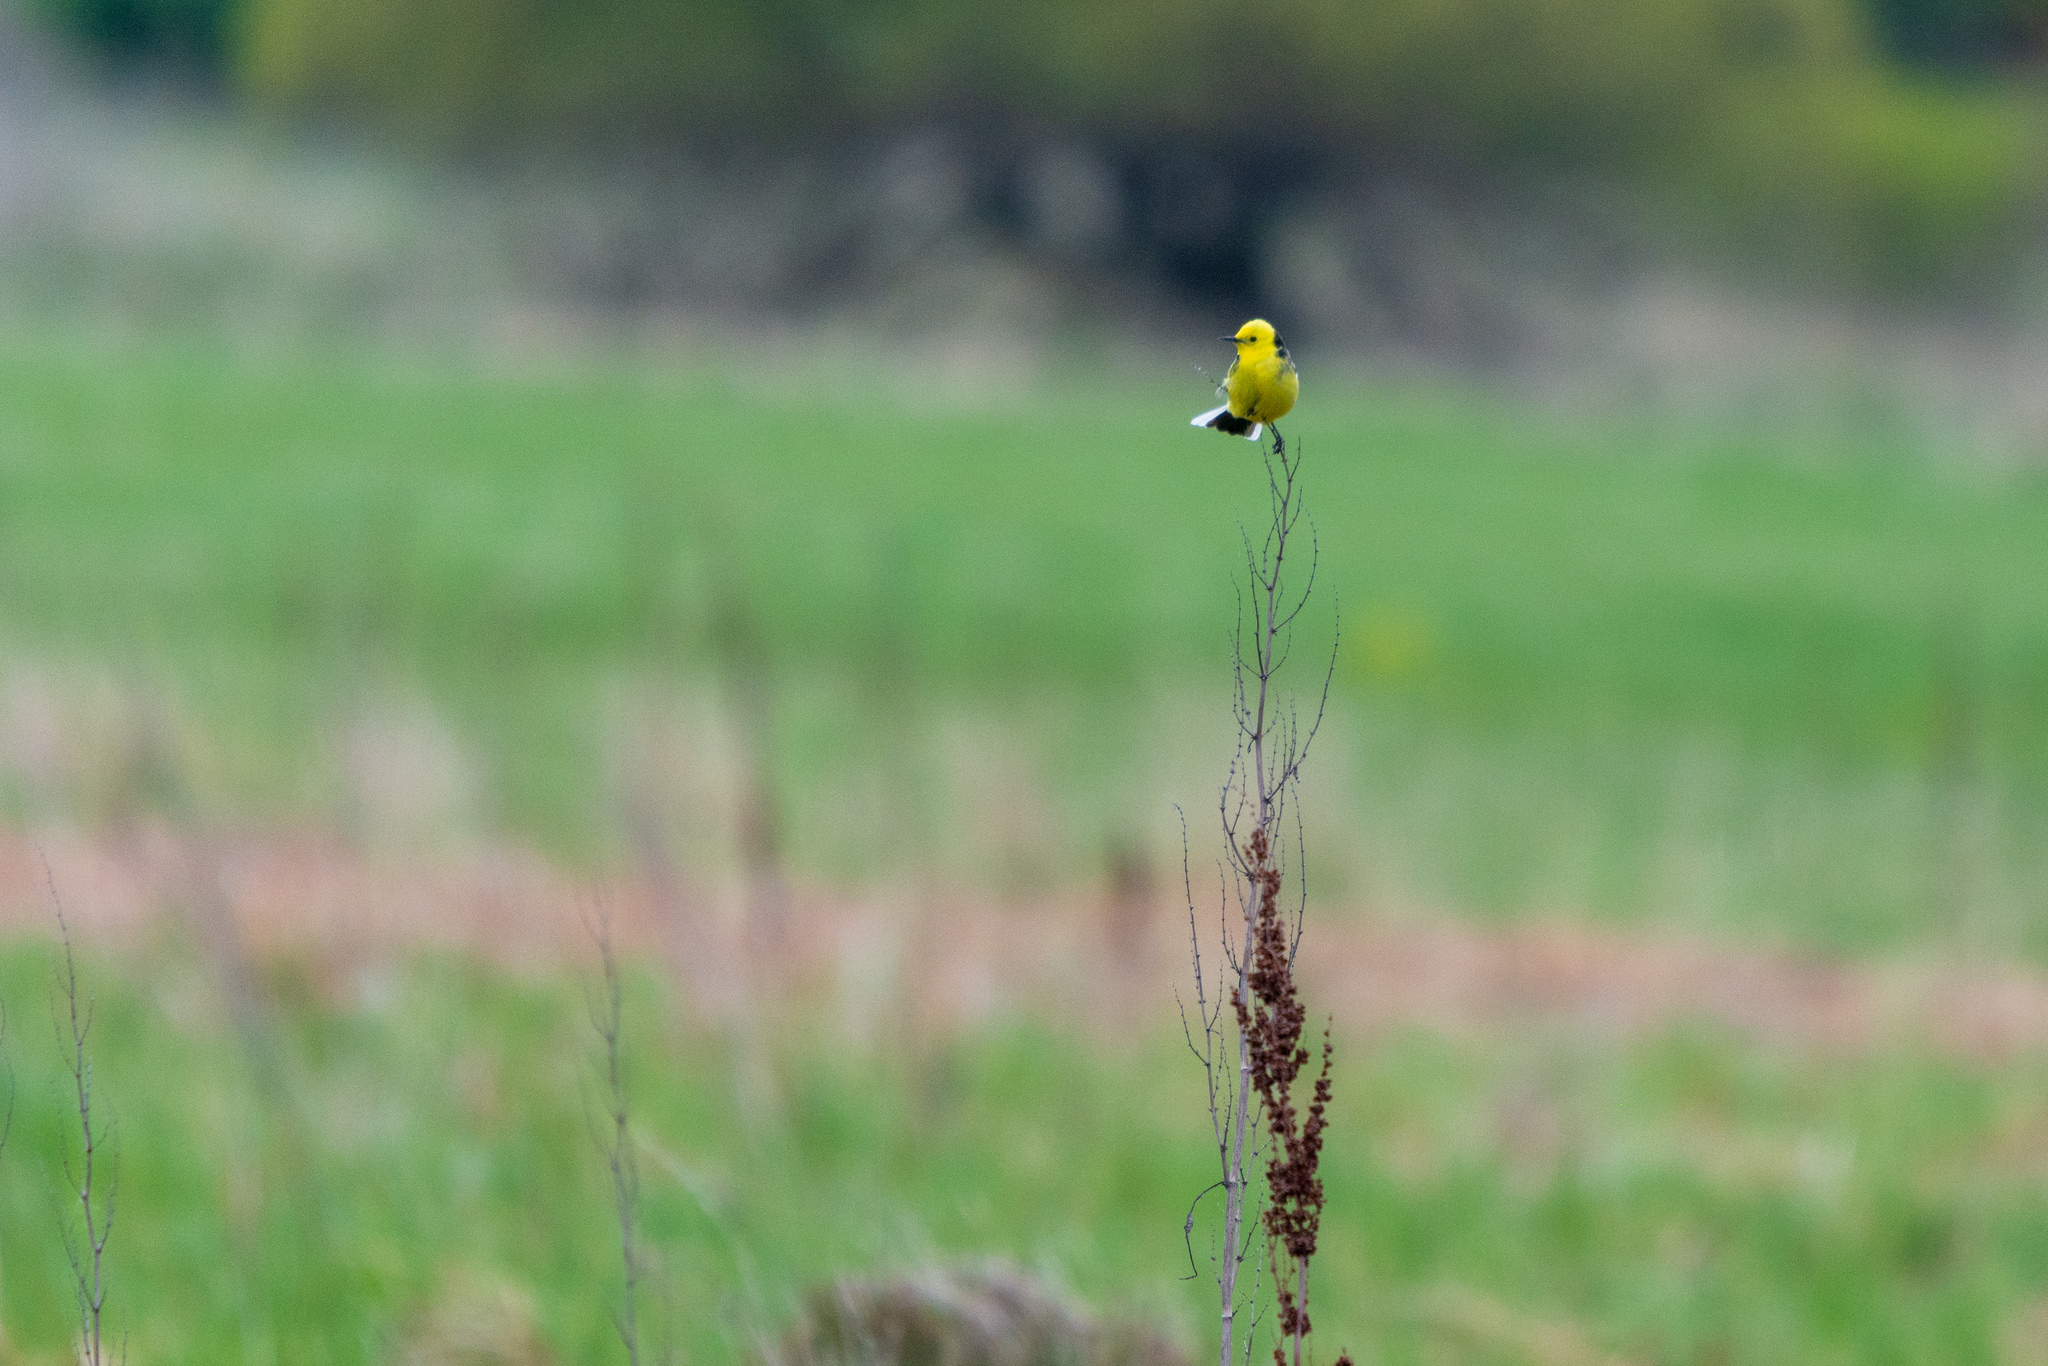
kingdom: Animalia
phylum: Chordata
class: Aves
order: Passeriformes
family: Motacillidae
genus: Motacilla
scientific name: Motacilla citreola
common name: Citrine wagtail
